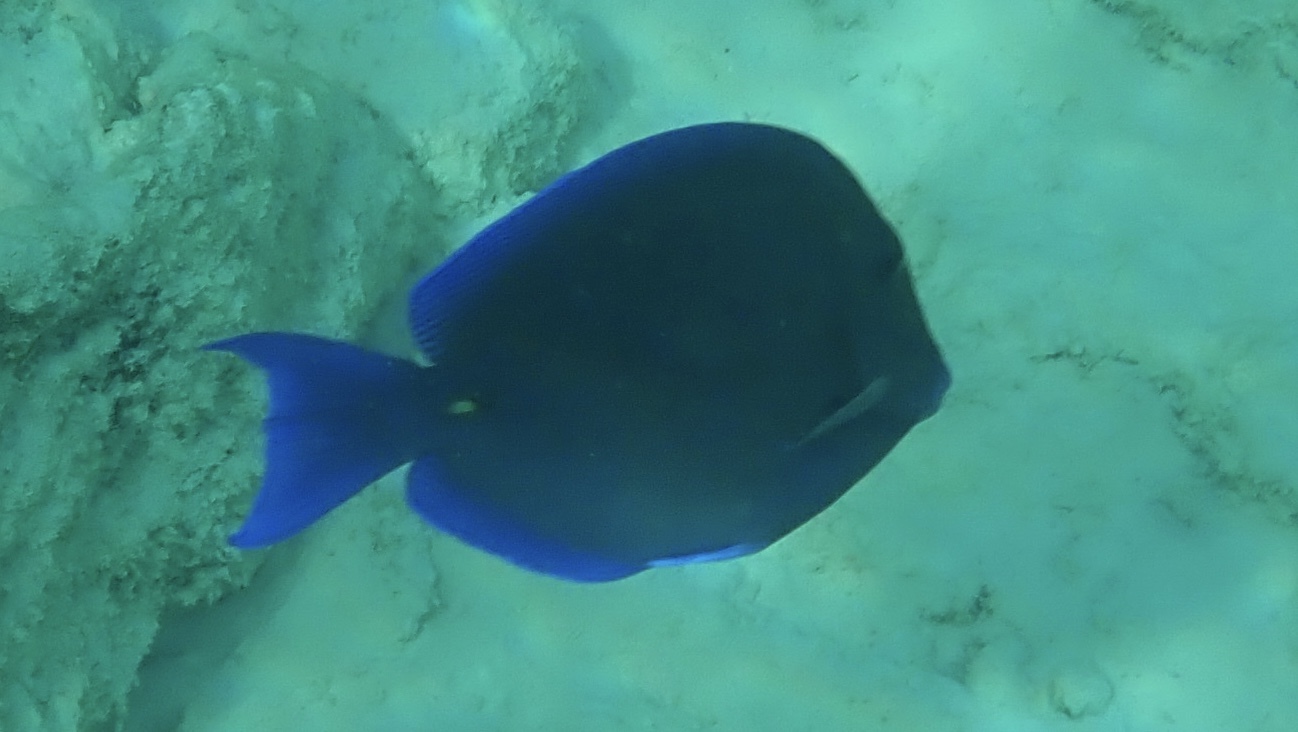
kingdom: Animalia
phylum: Chordata
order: Perciformes
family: Acanthuridae
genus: Acanthurus
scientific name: Acanthurus coeruleus
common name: Blue tang
